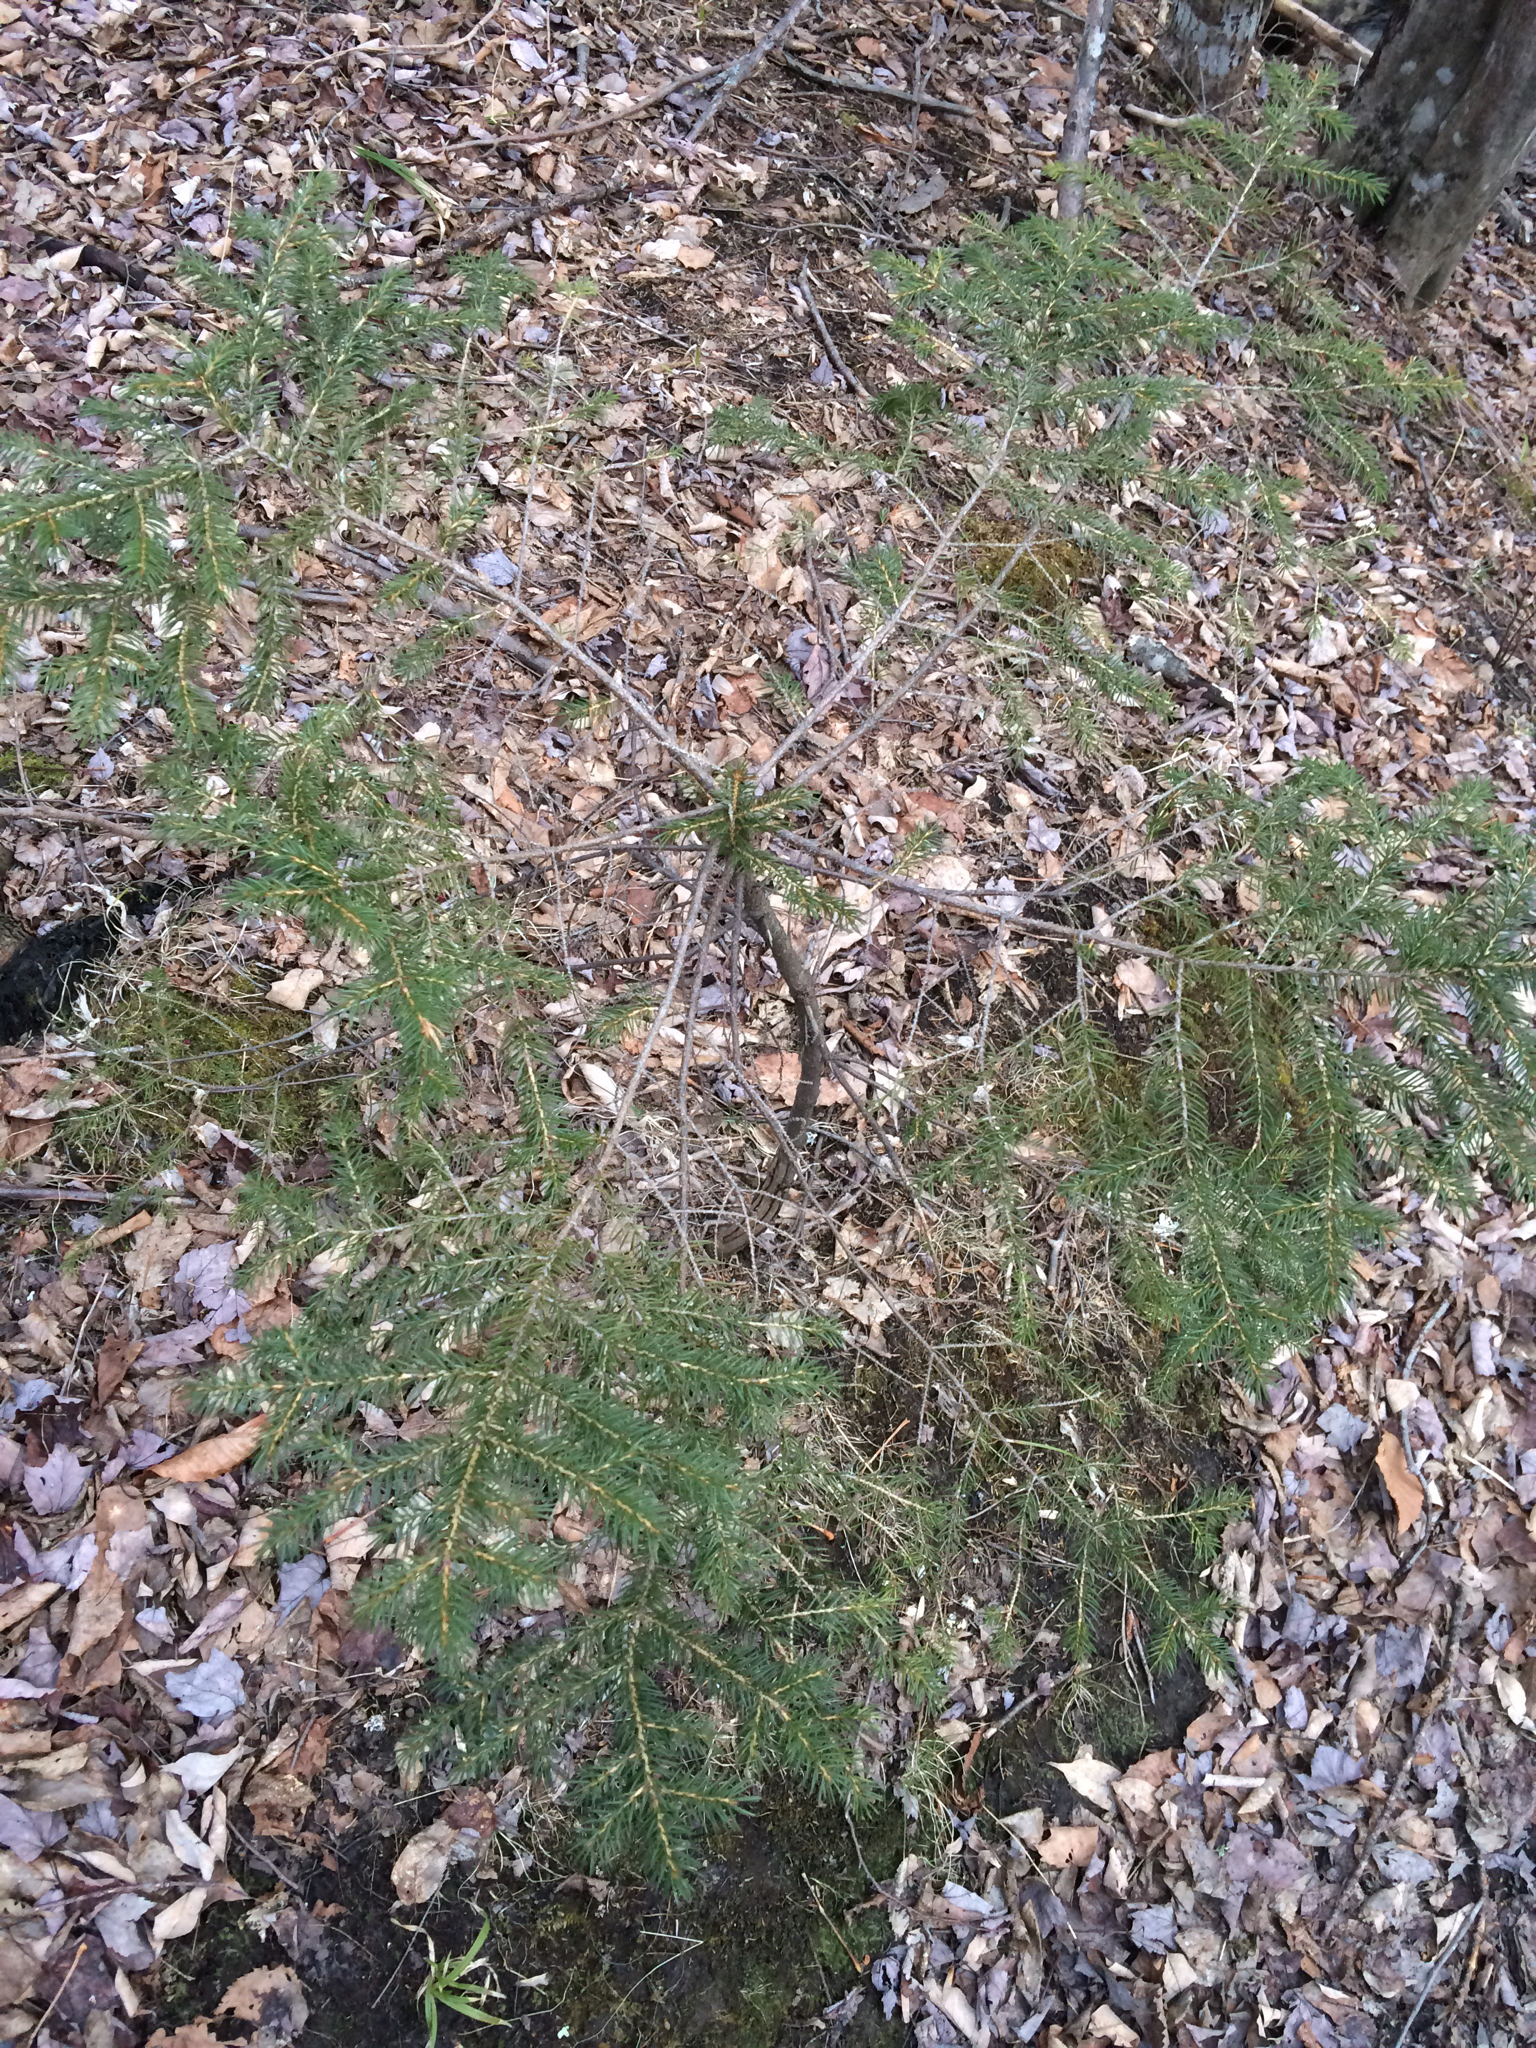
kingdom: Plantae
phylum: Tracheophyta
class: Pinopsida
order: Pinales
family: Pinaceae
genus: Picea
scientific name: Picea rubens
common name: Red spruce
